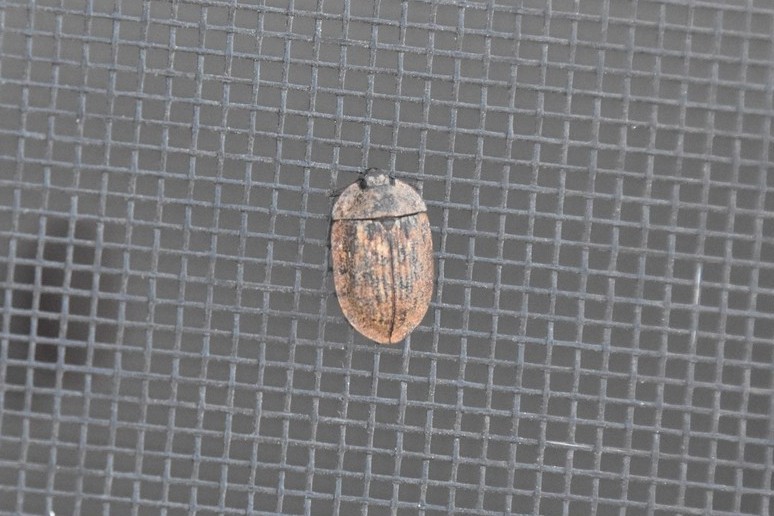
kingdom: Animalia
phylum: Arthropoda
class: Insecta
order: Coleoptera
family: Trogossitidae
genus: Peltis
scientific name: Peltis pippingskoeldi
